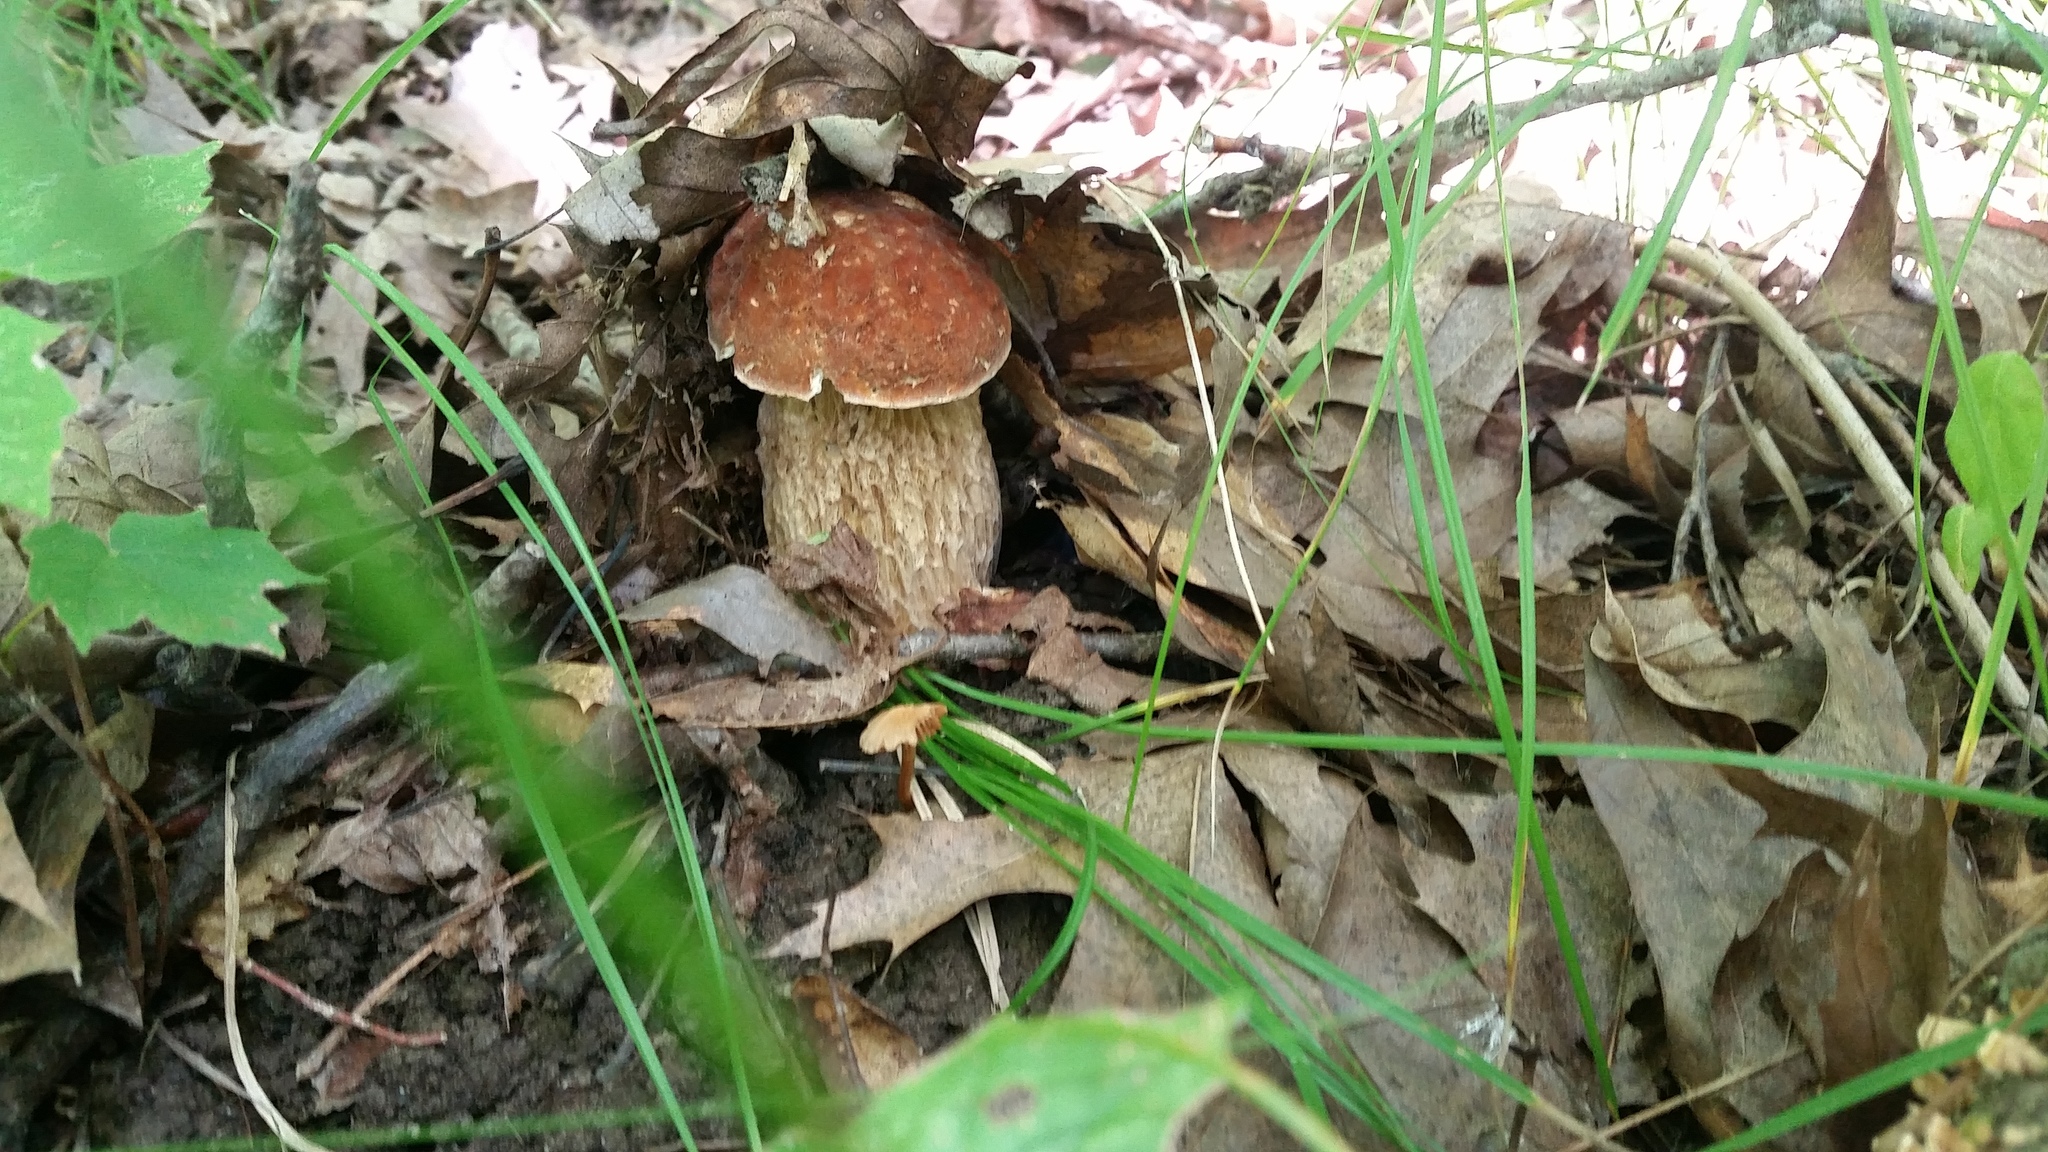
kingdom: Fungi
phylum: Basidiomycota
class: Agaricomycetes
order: Boletales
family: Boletaceae
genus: Aureoboletus
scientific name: Aureoboletus russellii
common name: Russell's bolete
